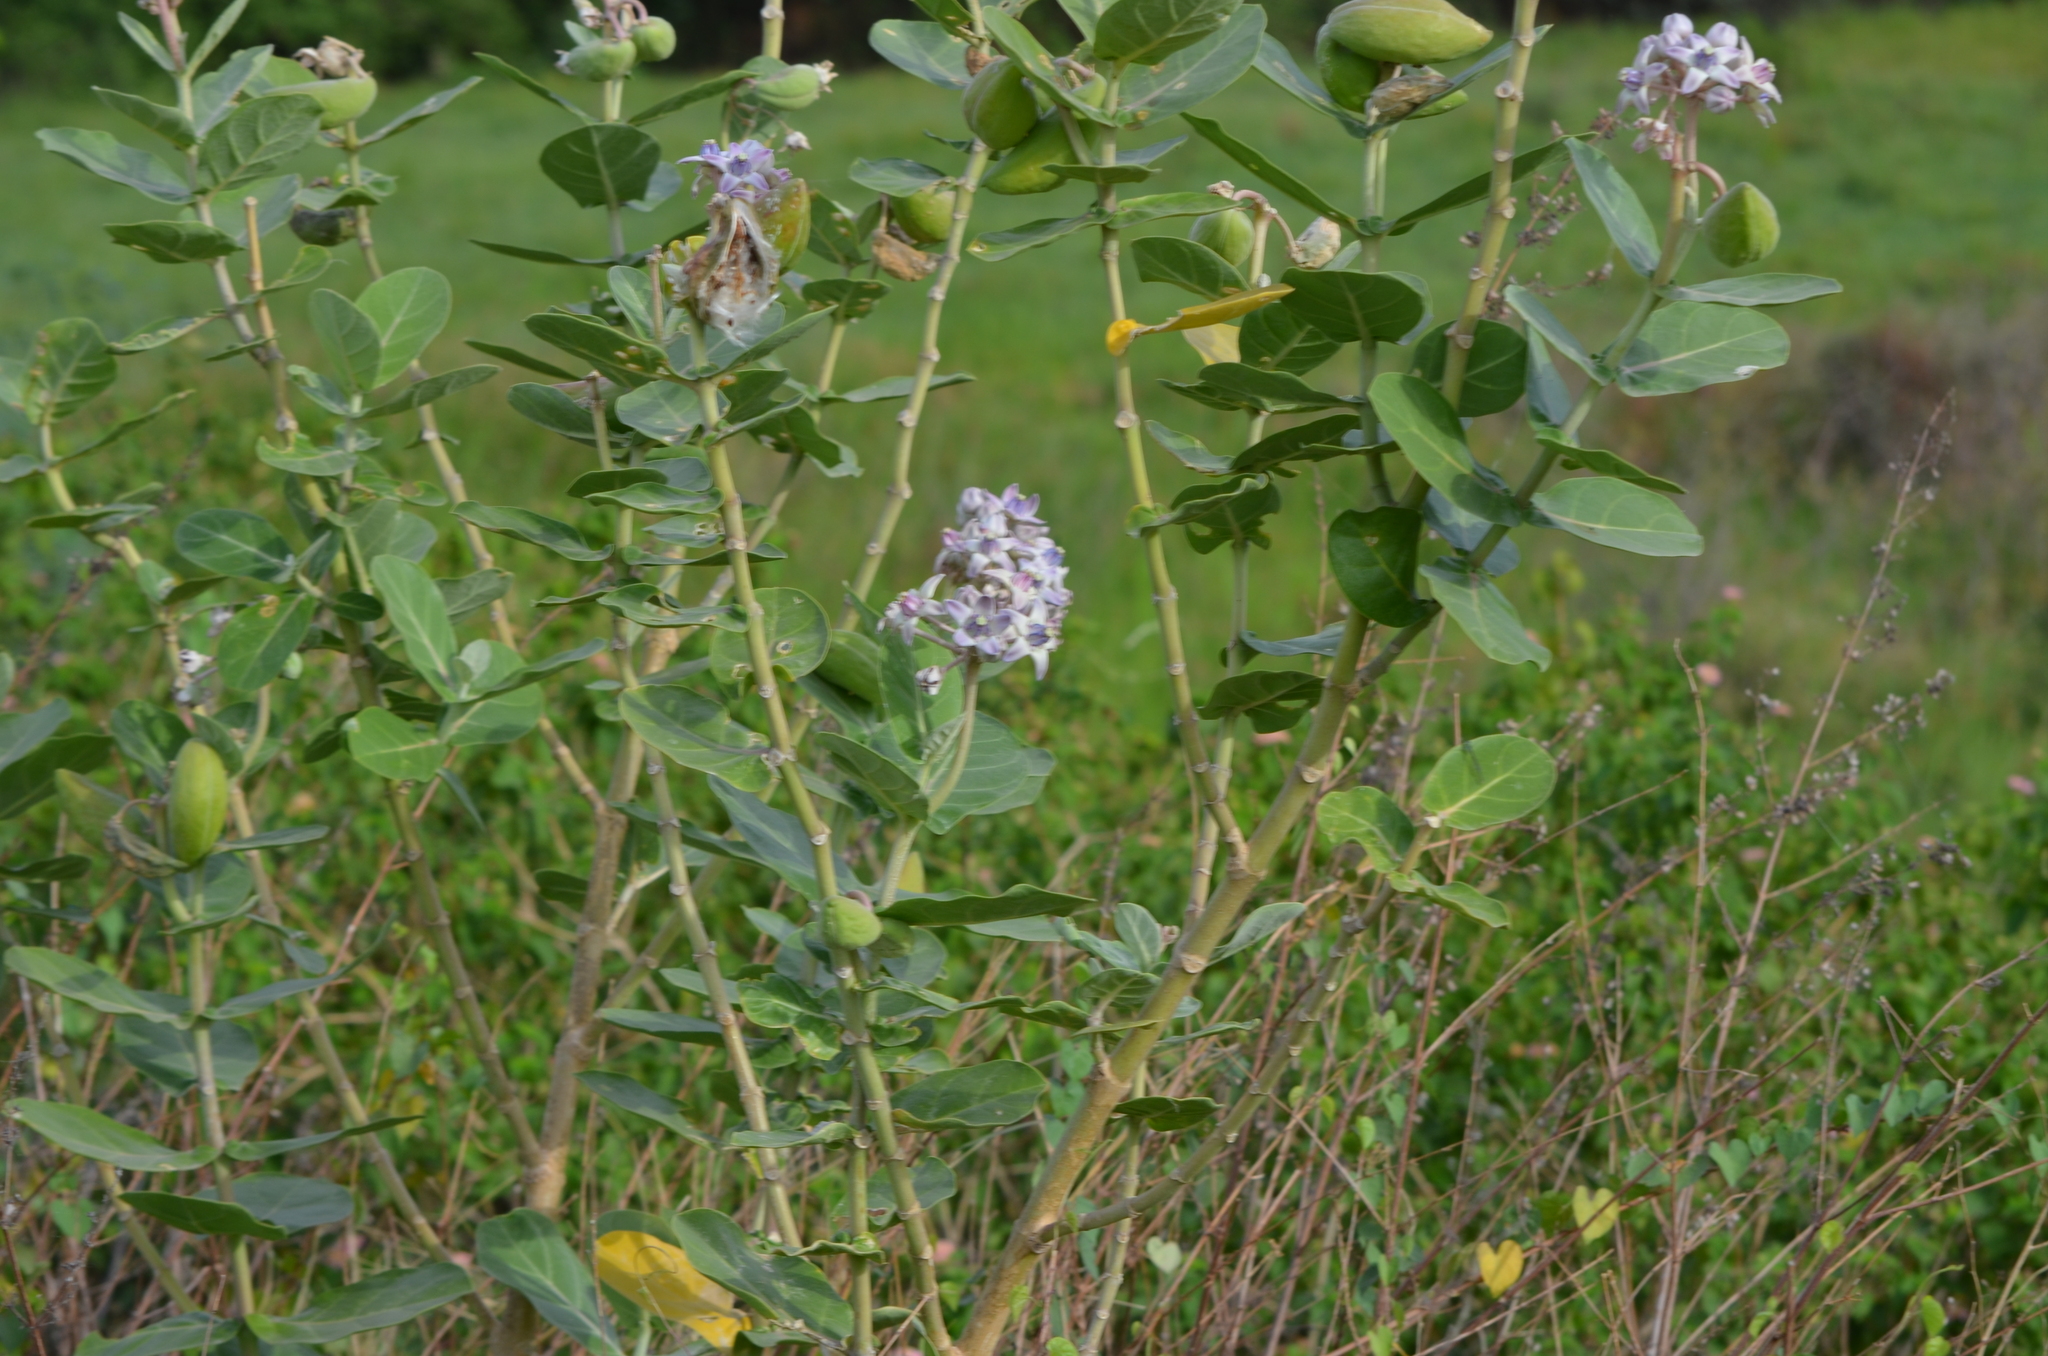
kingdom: Plantae
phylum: Tracheophyta
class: Magnoliopsida
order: Gentianales
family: Apocynaceae
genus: Calotropis
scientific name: Calotropis gigantea
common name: Crown flower
